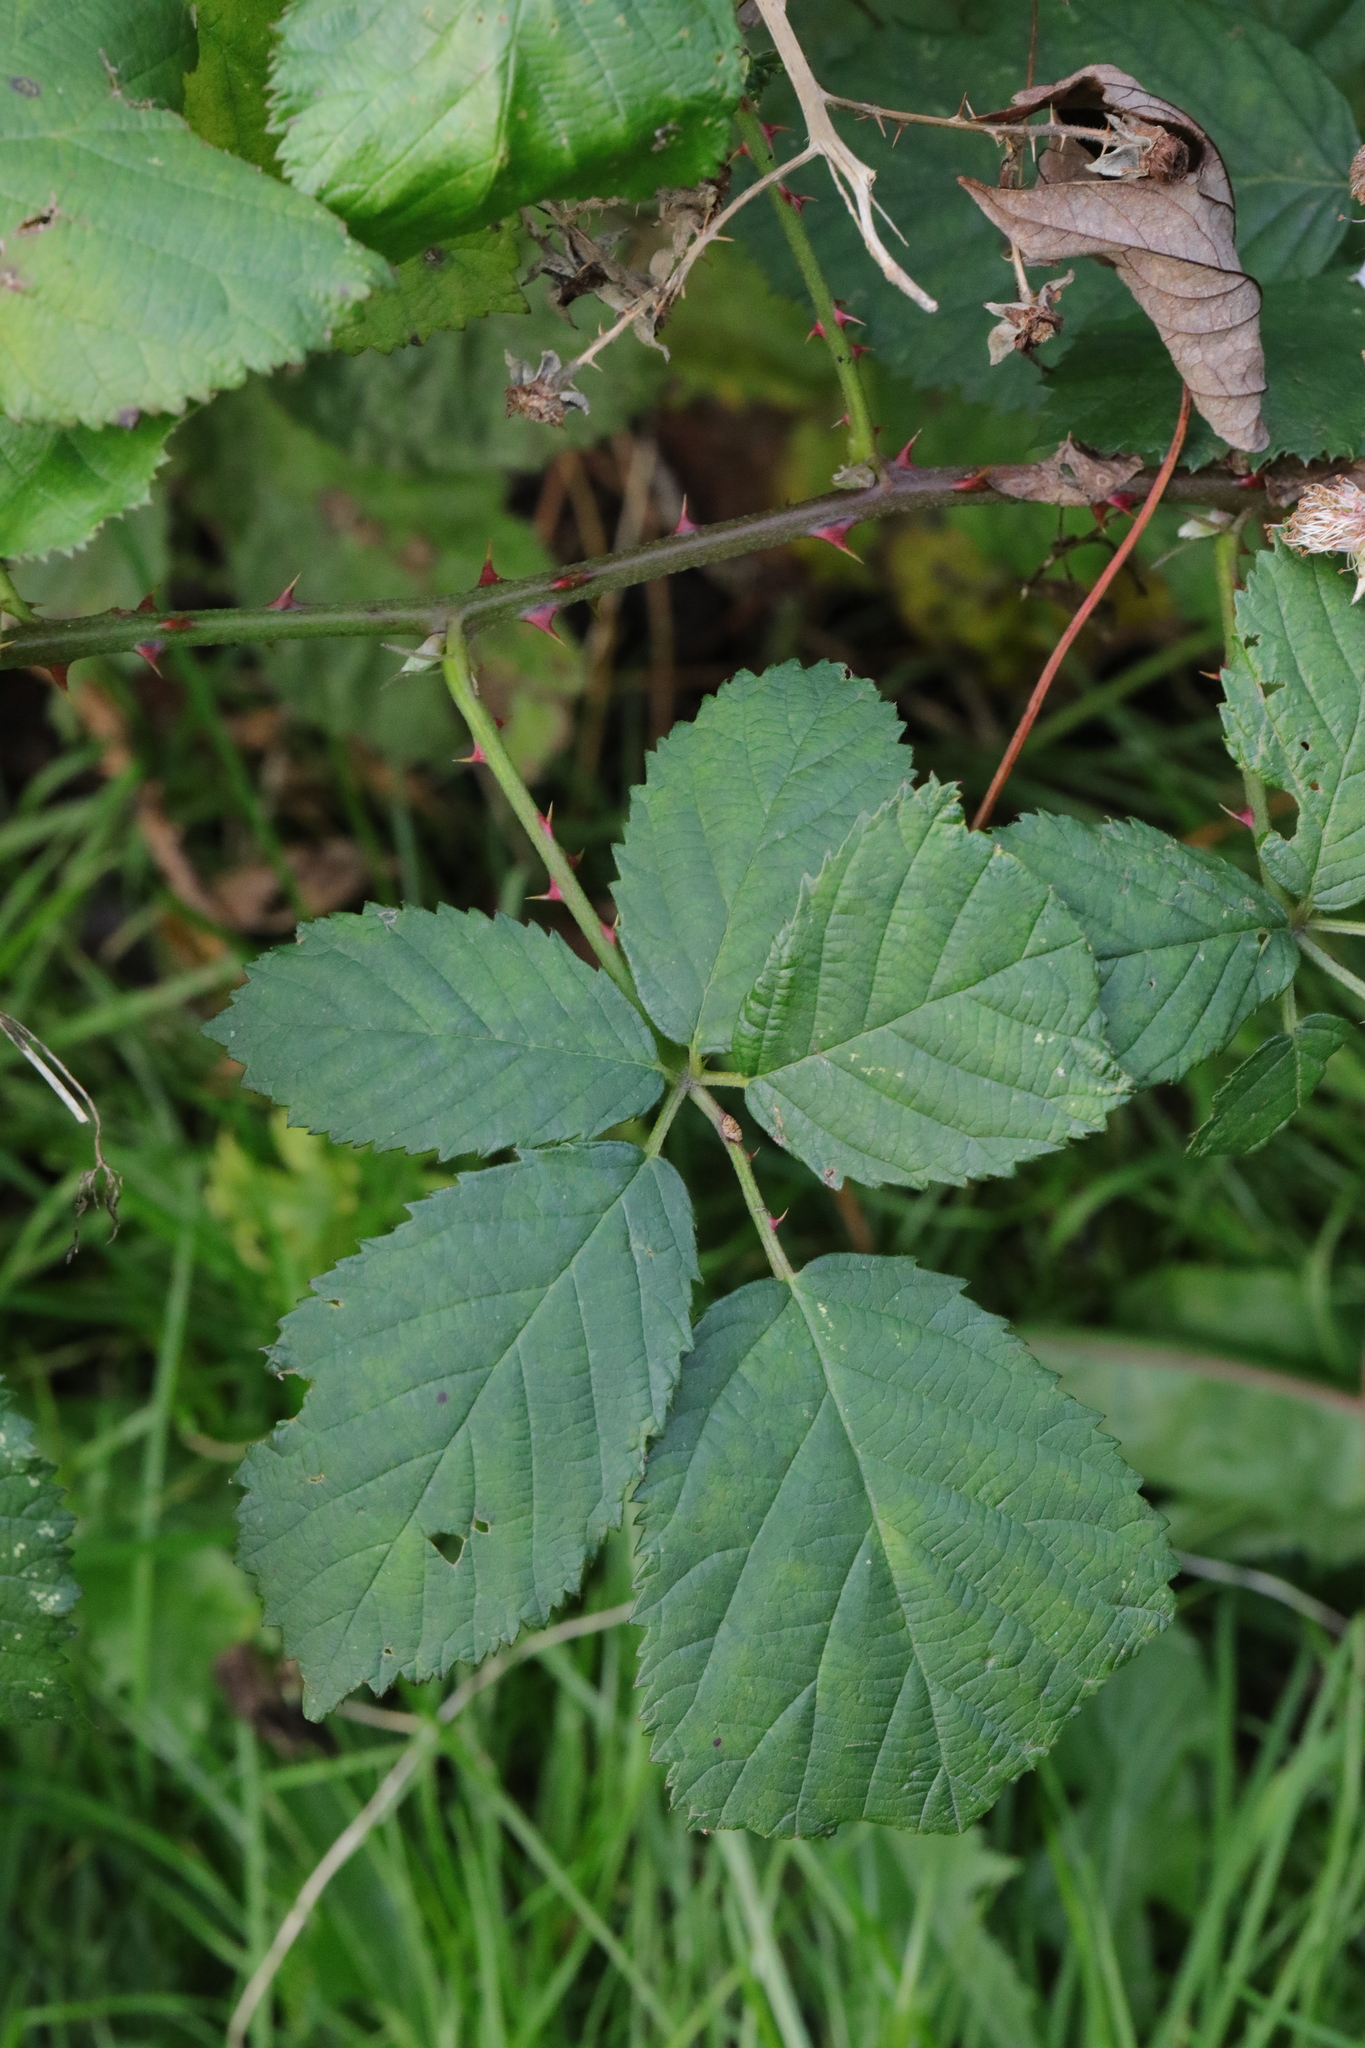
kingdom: Plantae
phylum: Tracheophyta
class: Magnoliopsida
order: Rosales
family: Rosaceae
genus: Rubus
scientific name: Rubus armeniacus
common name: Himalayan blackberry
